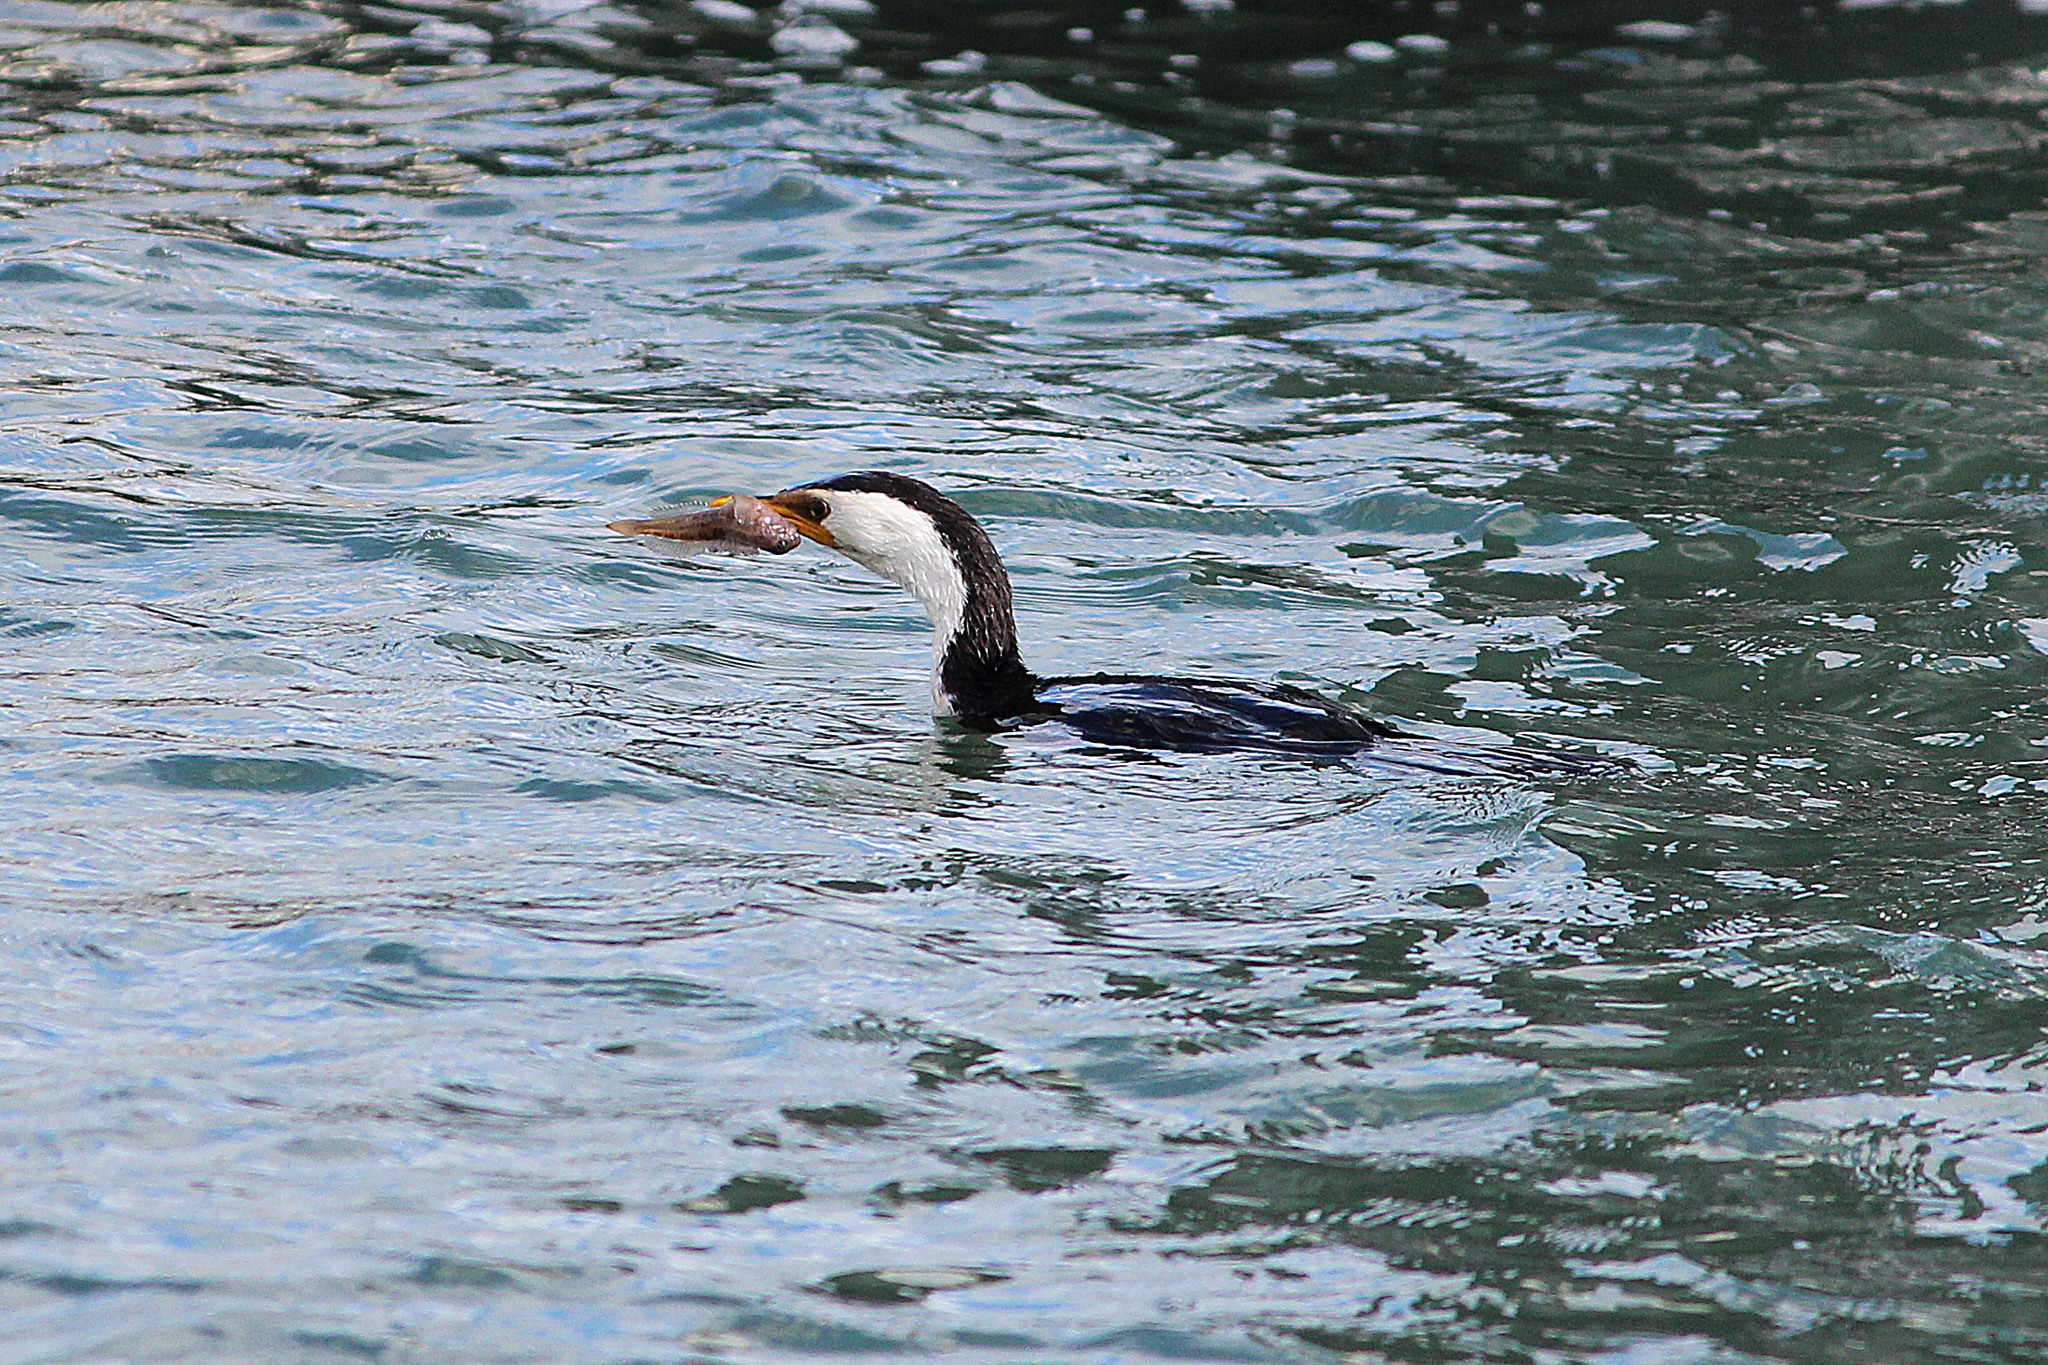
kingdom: Animalia
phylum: Chordata
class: Aves
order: Suliformes
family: Phalacrocoracidae
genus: Microcarbo
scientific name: Microcarbo melanoleucos
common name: Little pied cormorant
